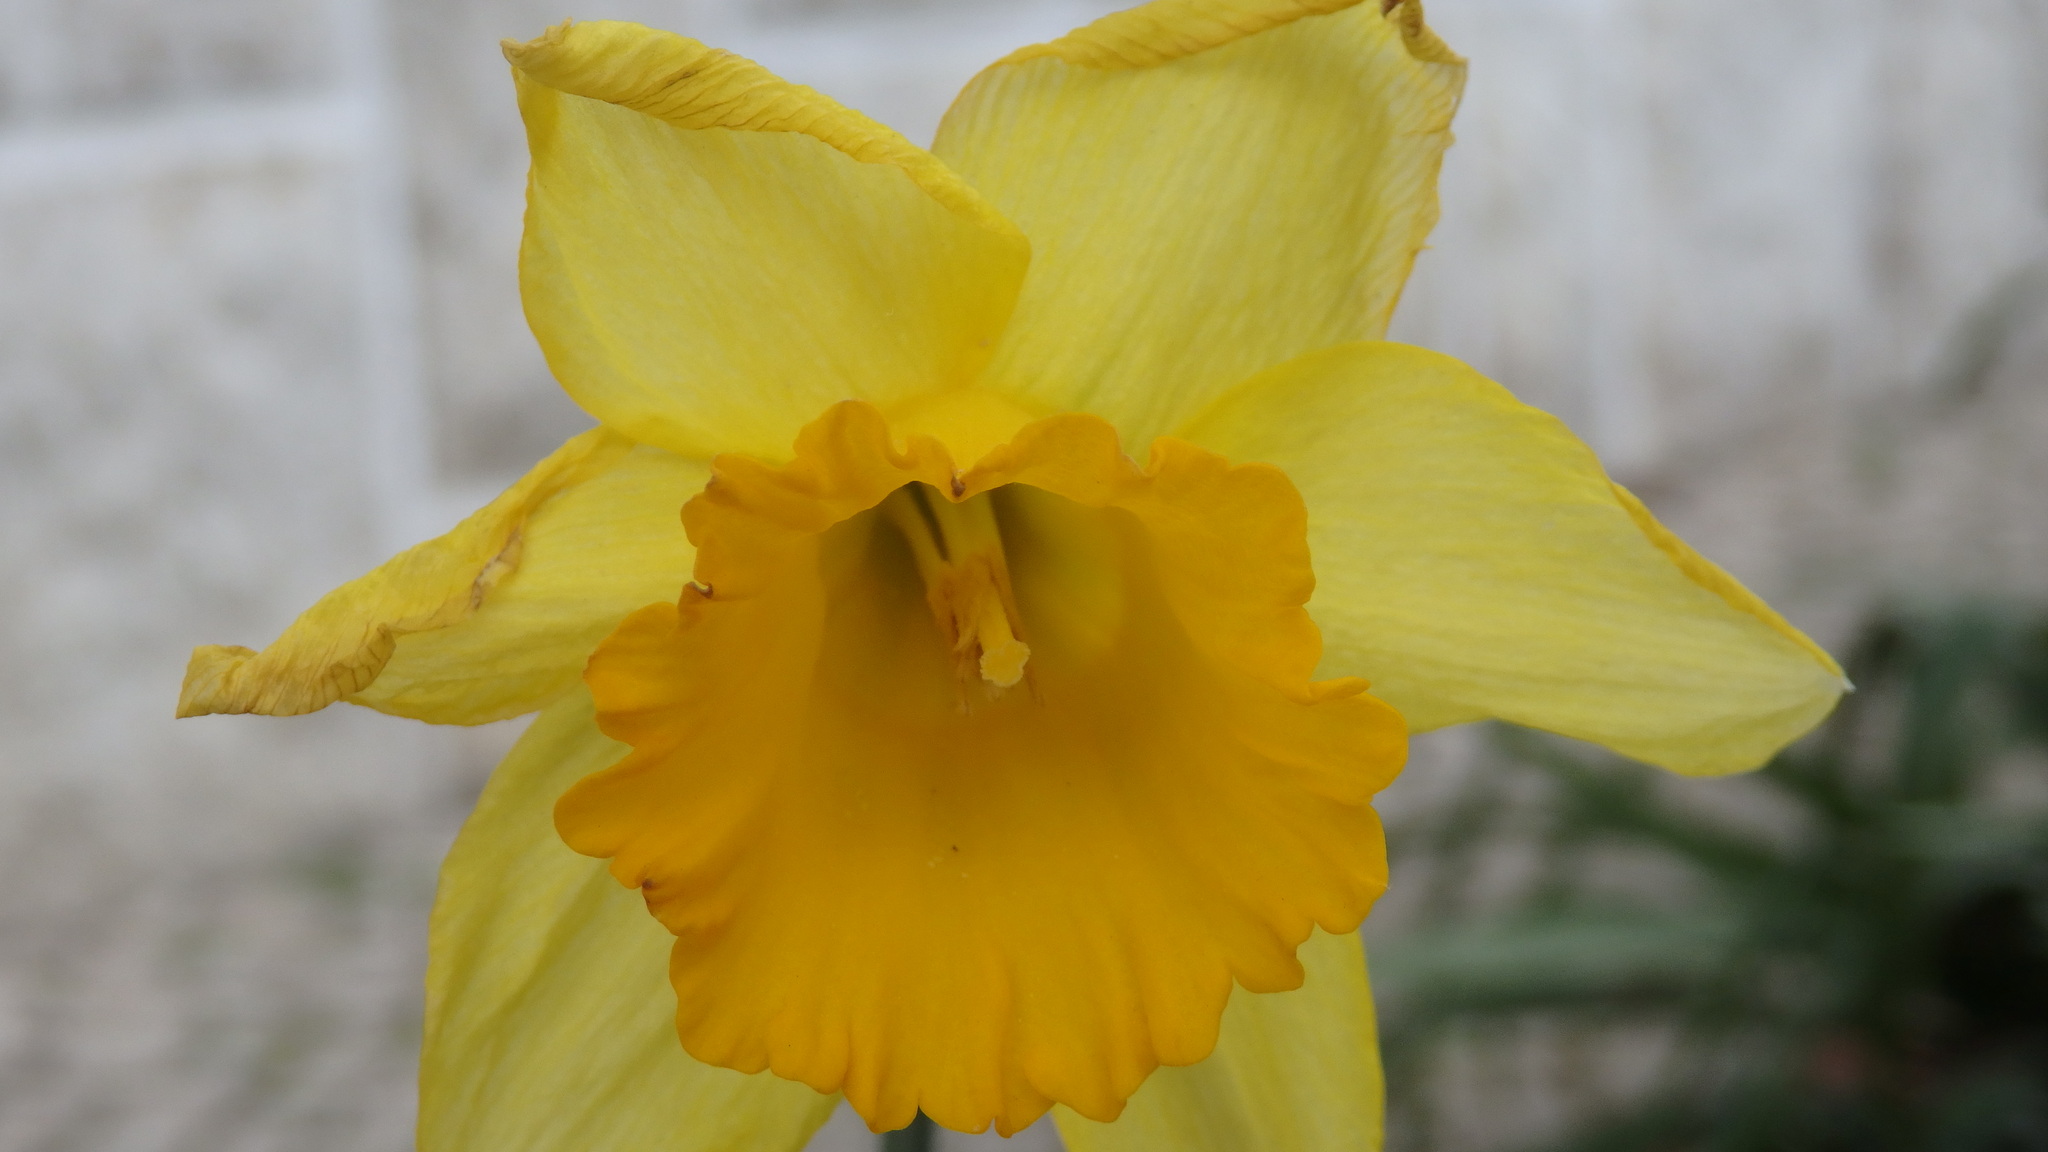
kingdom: Plantae
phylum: Tracheophyta
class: Liliopsida
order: Asparagales
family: Amaryllidaceae
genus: Narcissus
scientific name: Narcissus pseudonarcissus
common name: Daffodil
